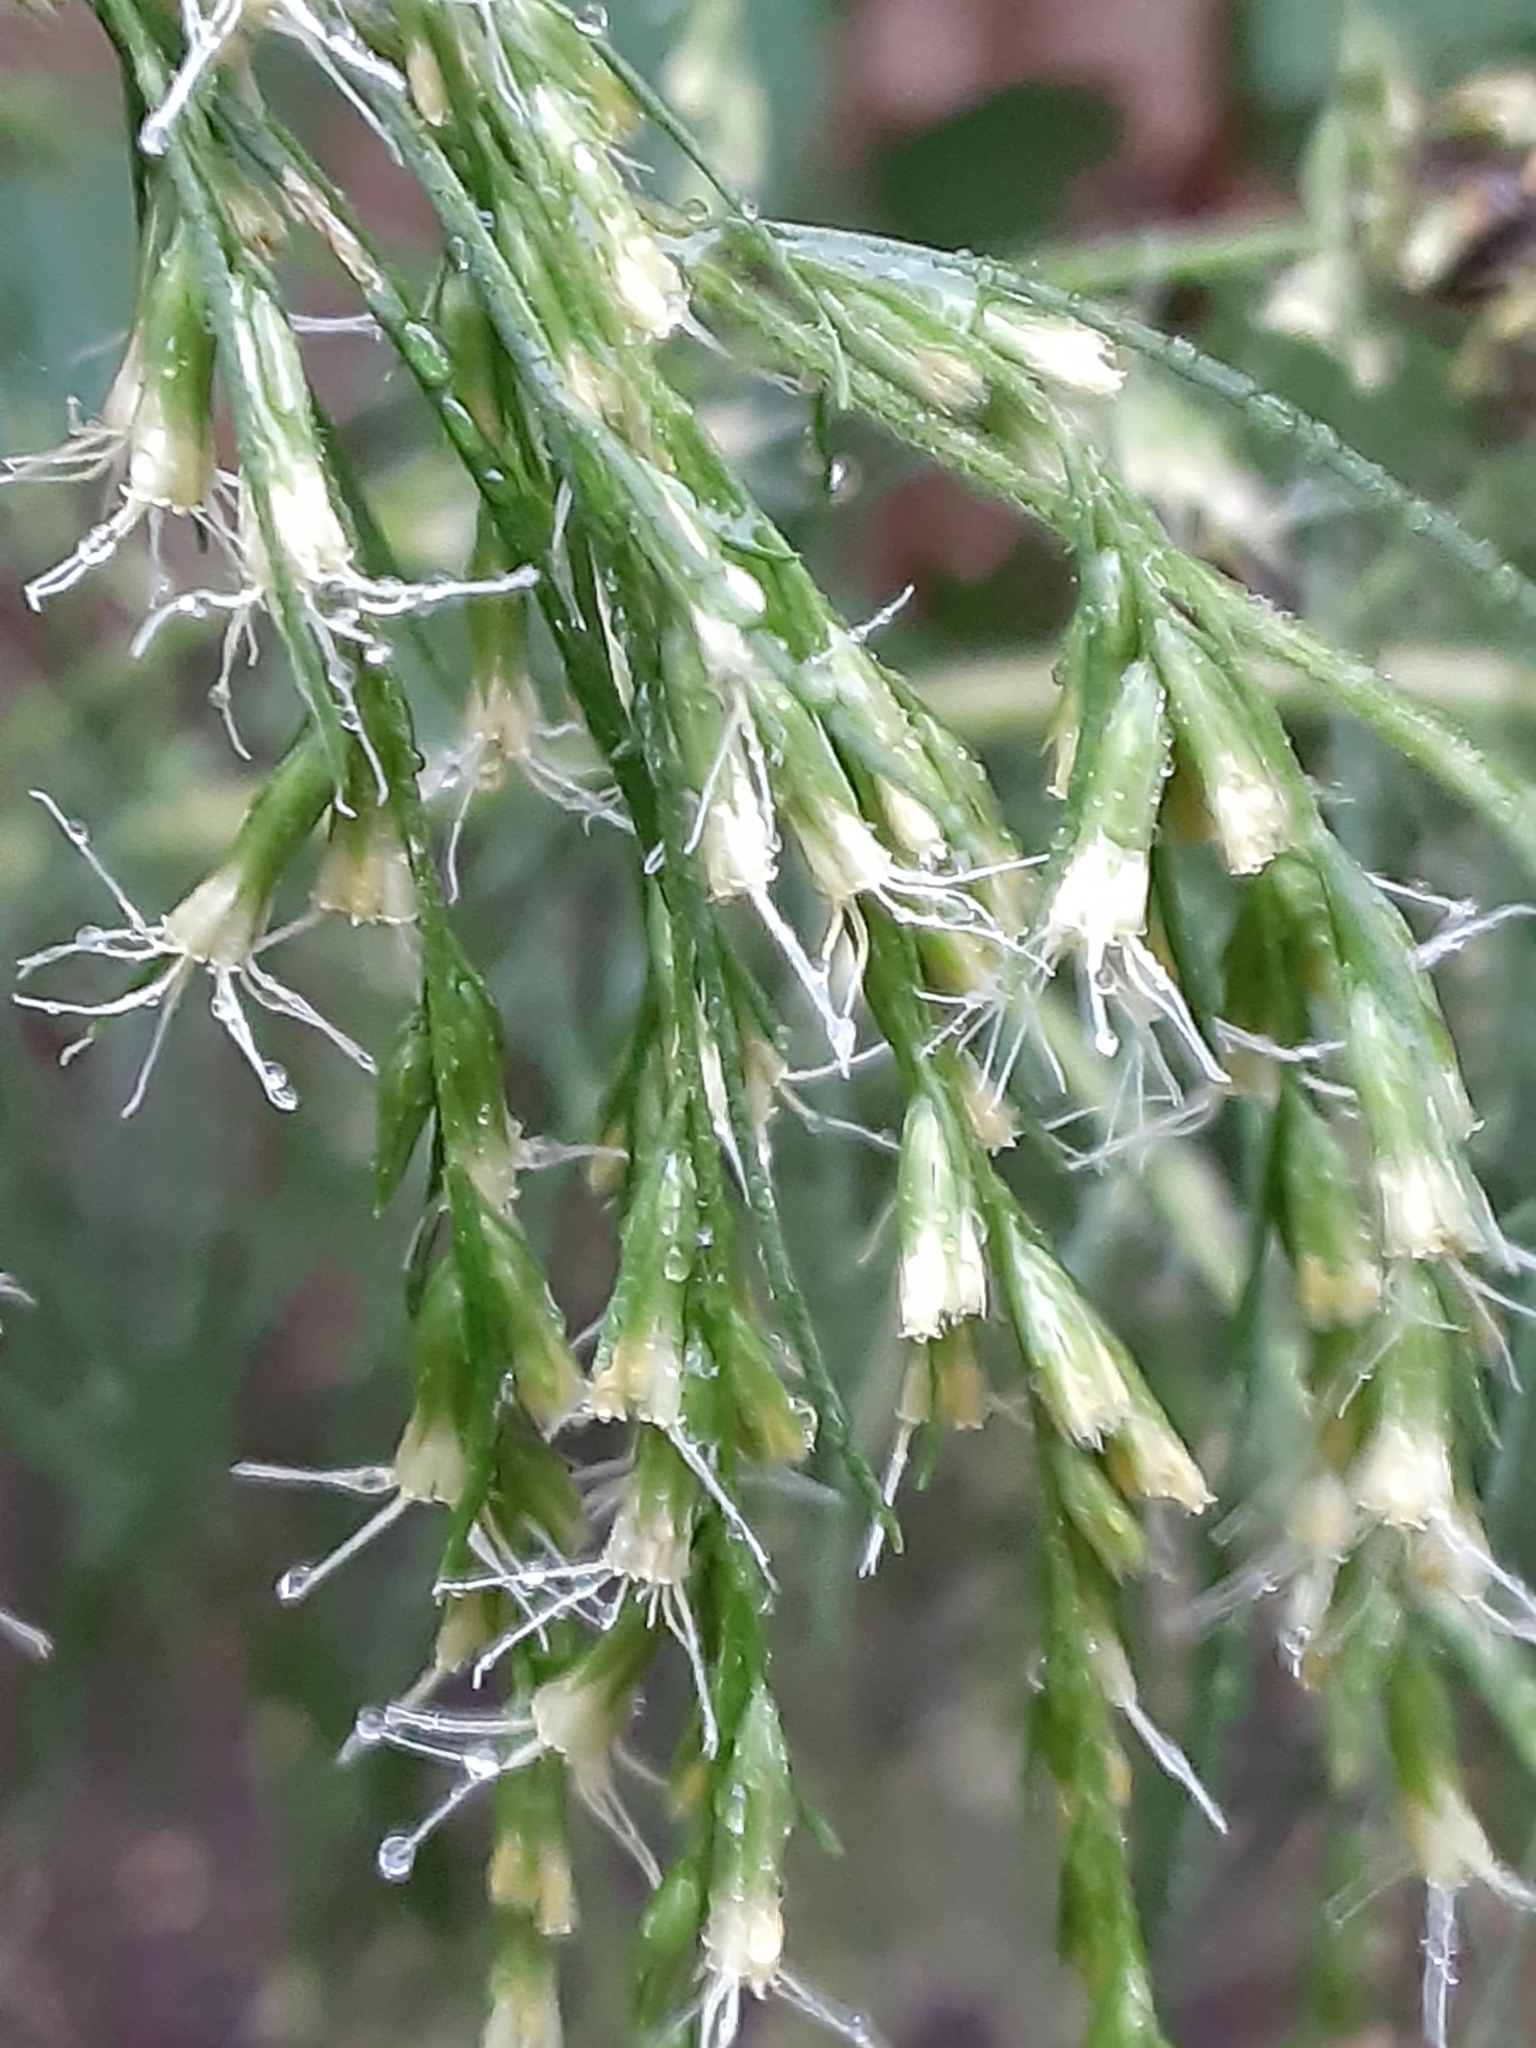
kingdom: Plantae
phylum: Tracheophyta
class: Magnoliopsida
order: Asterales
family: Asteraceae
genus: Eupatorium
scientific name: Eupatorium capillifolium
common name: Dog-fennel
